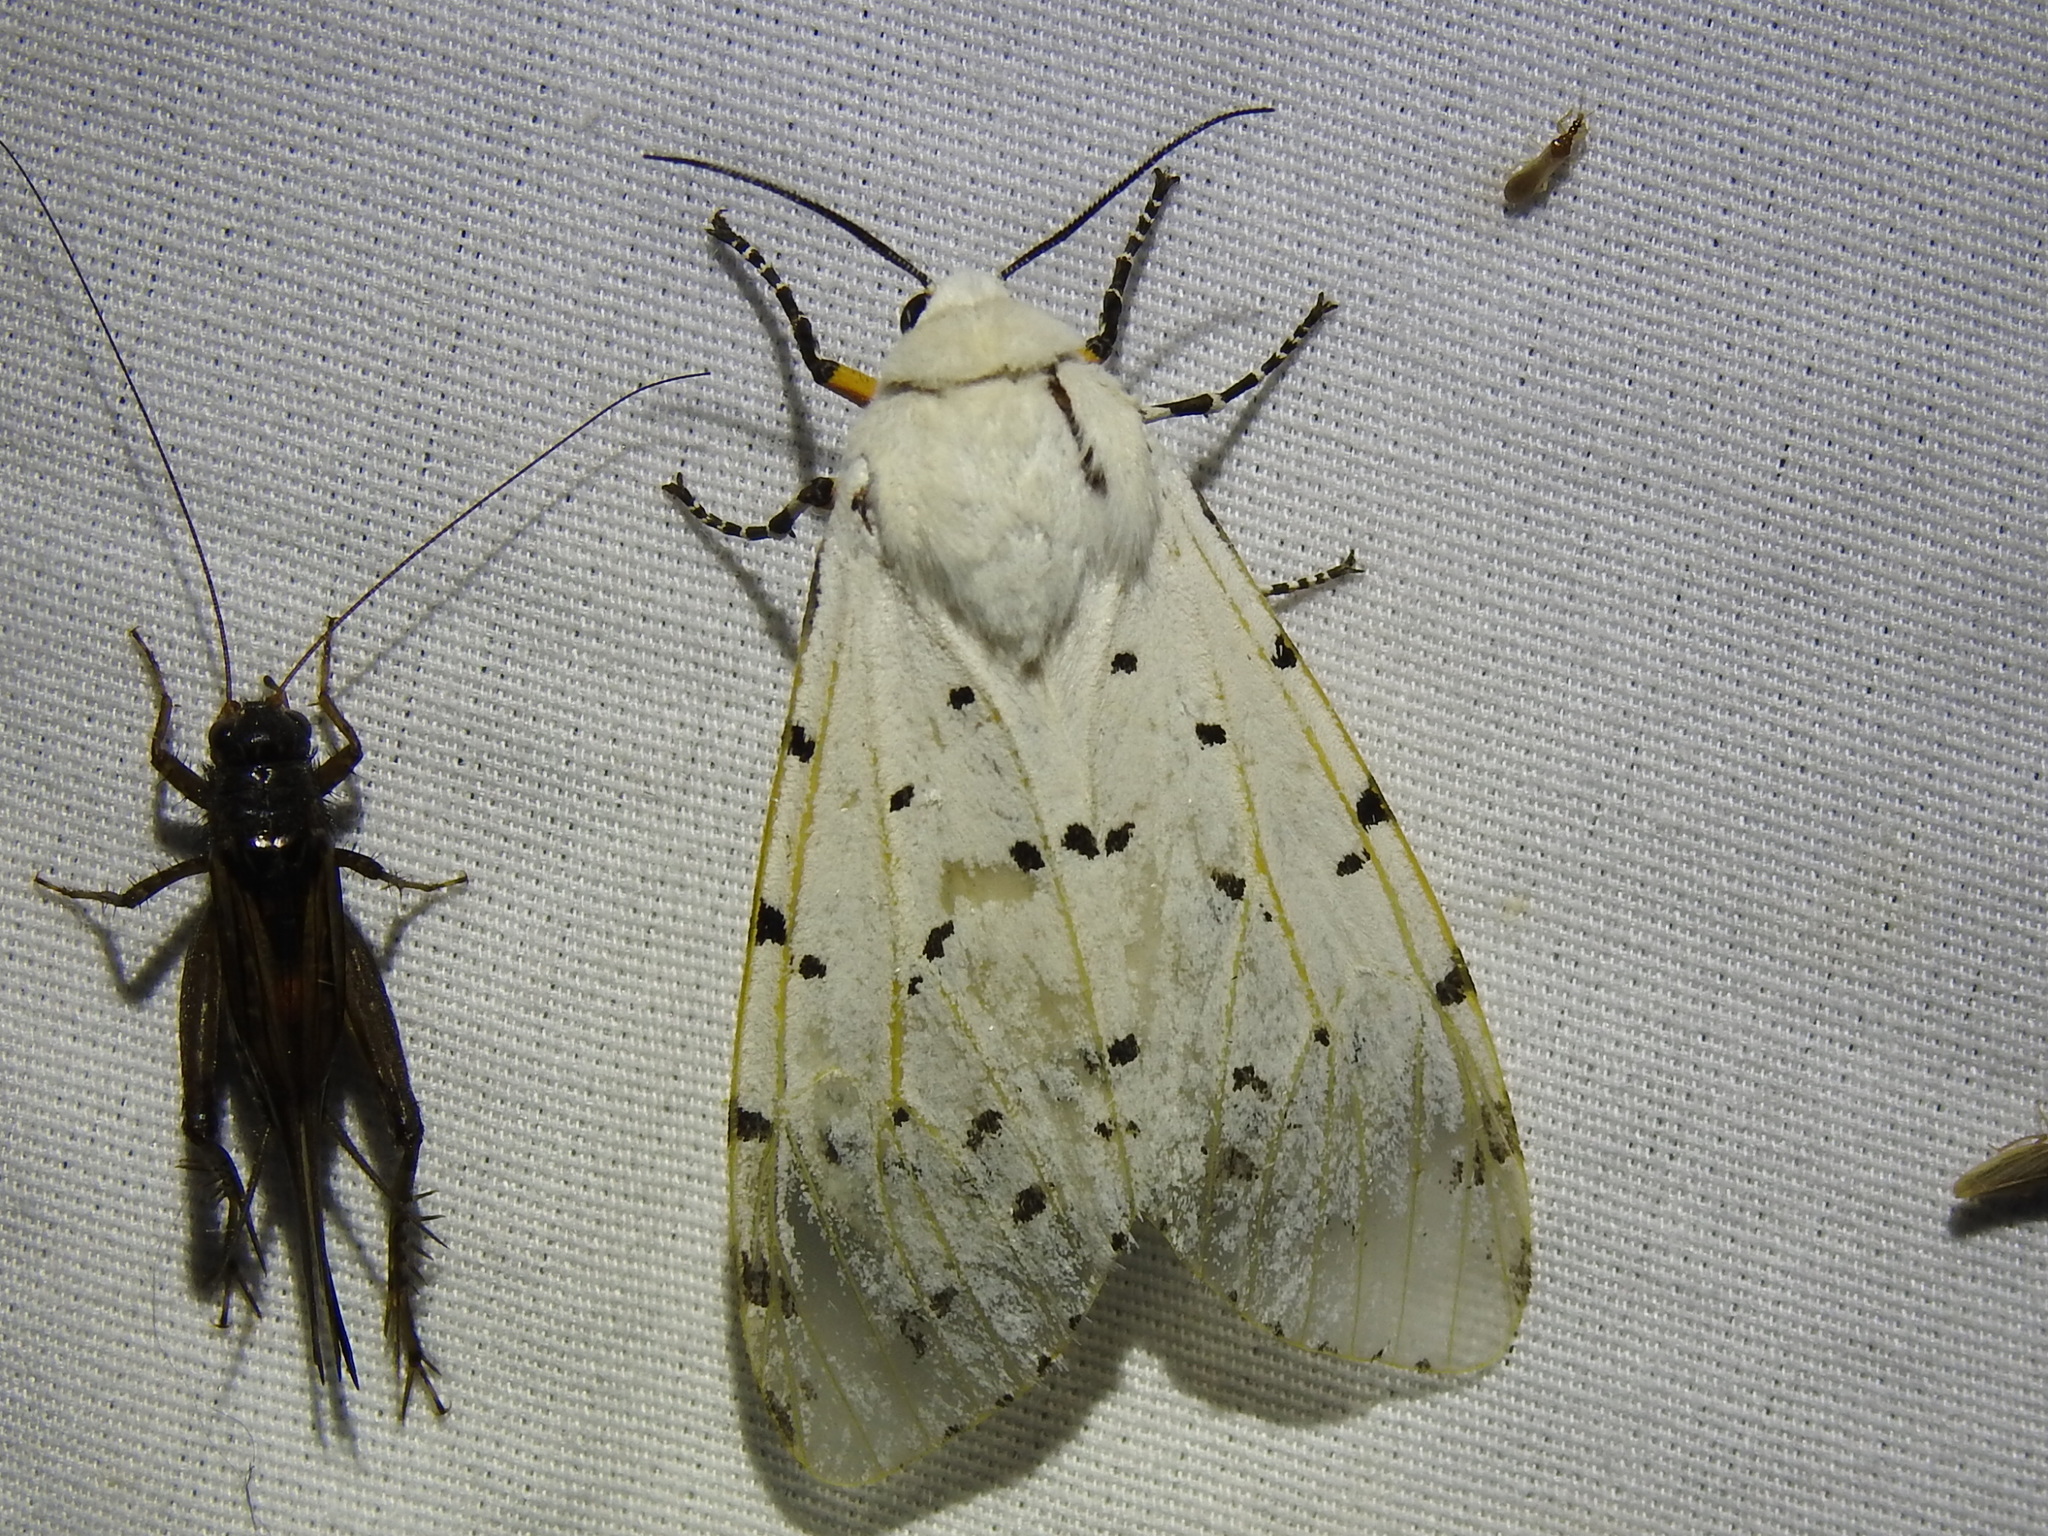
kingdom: Animalia
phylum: Arthropoda
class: Insecta
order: Lepidoptera
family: Erebidae
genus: Estigmene
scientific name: Estigmene acrea
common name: Salt marsh moth
